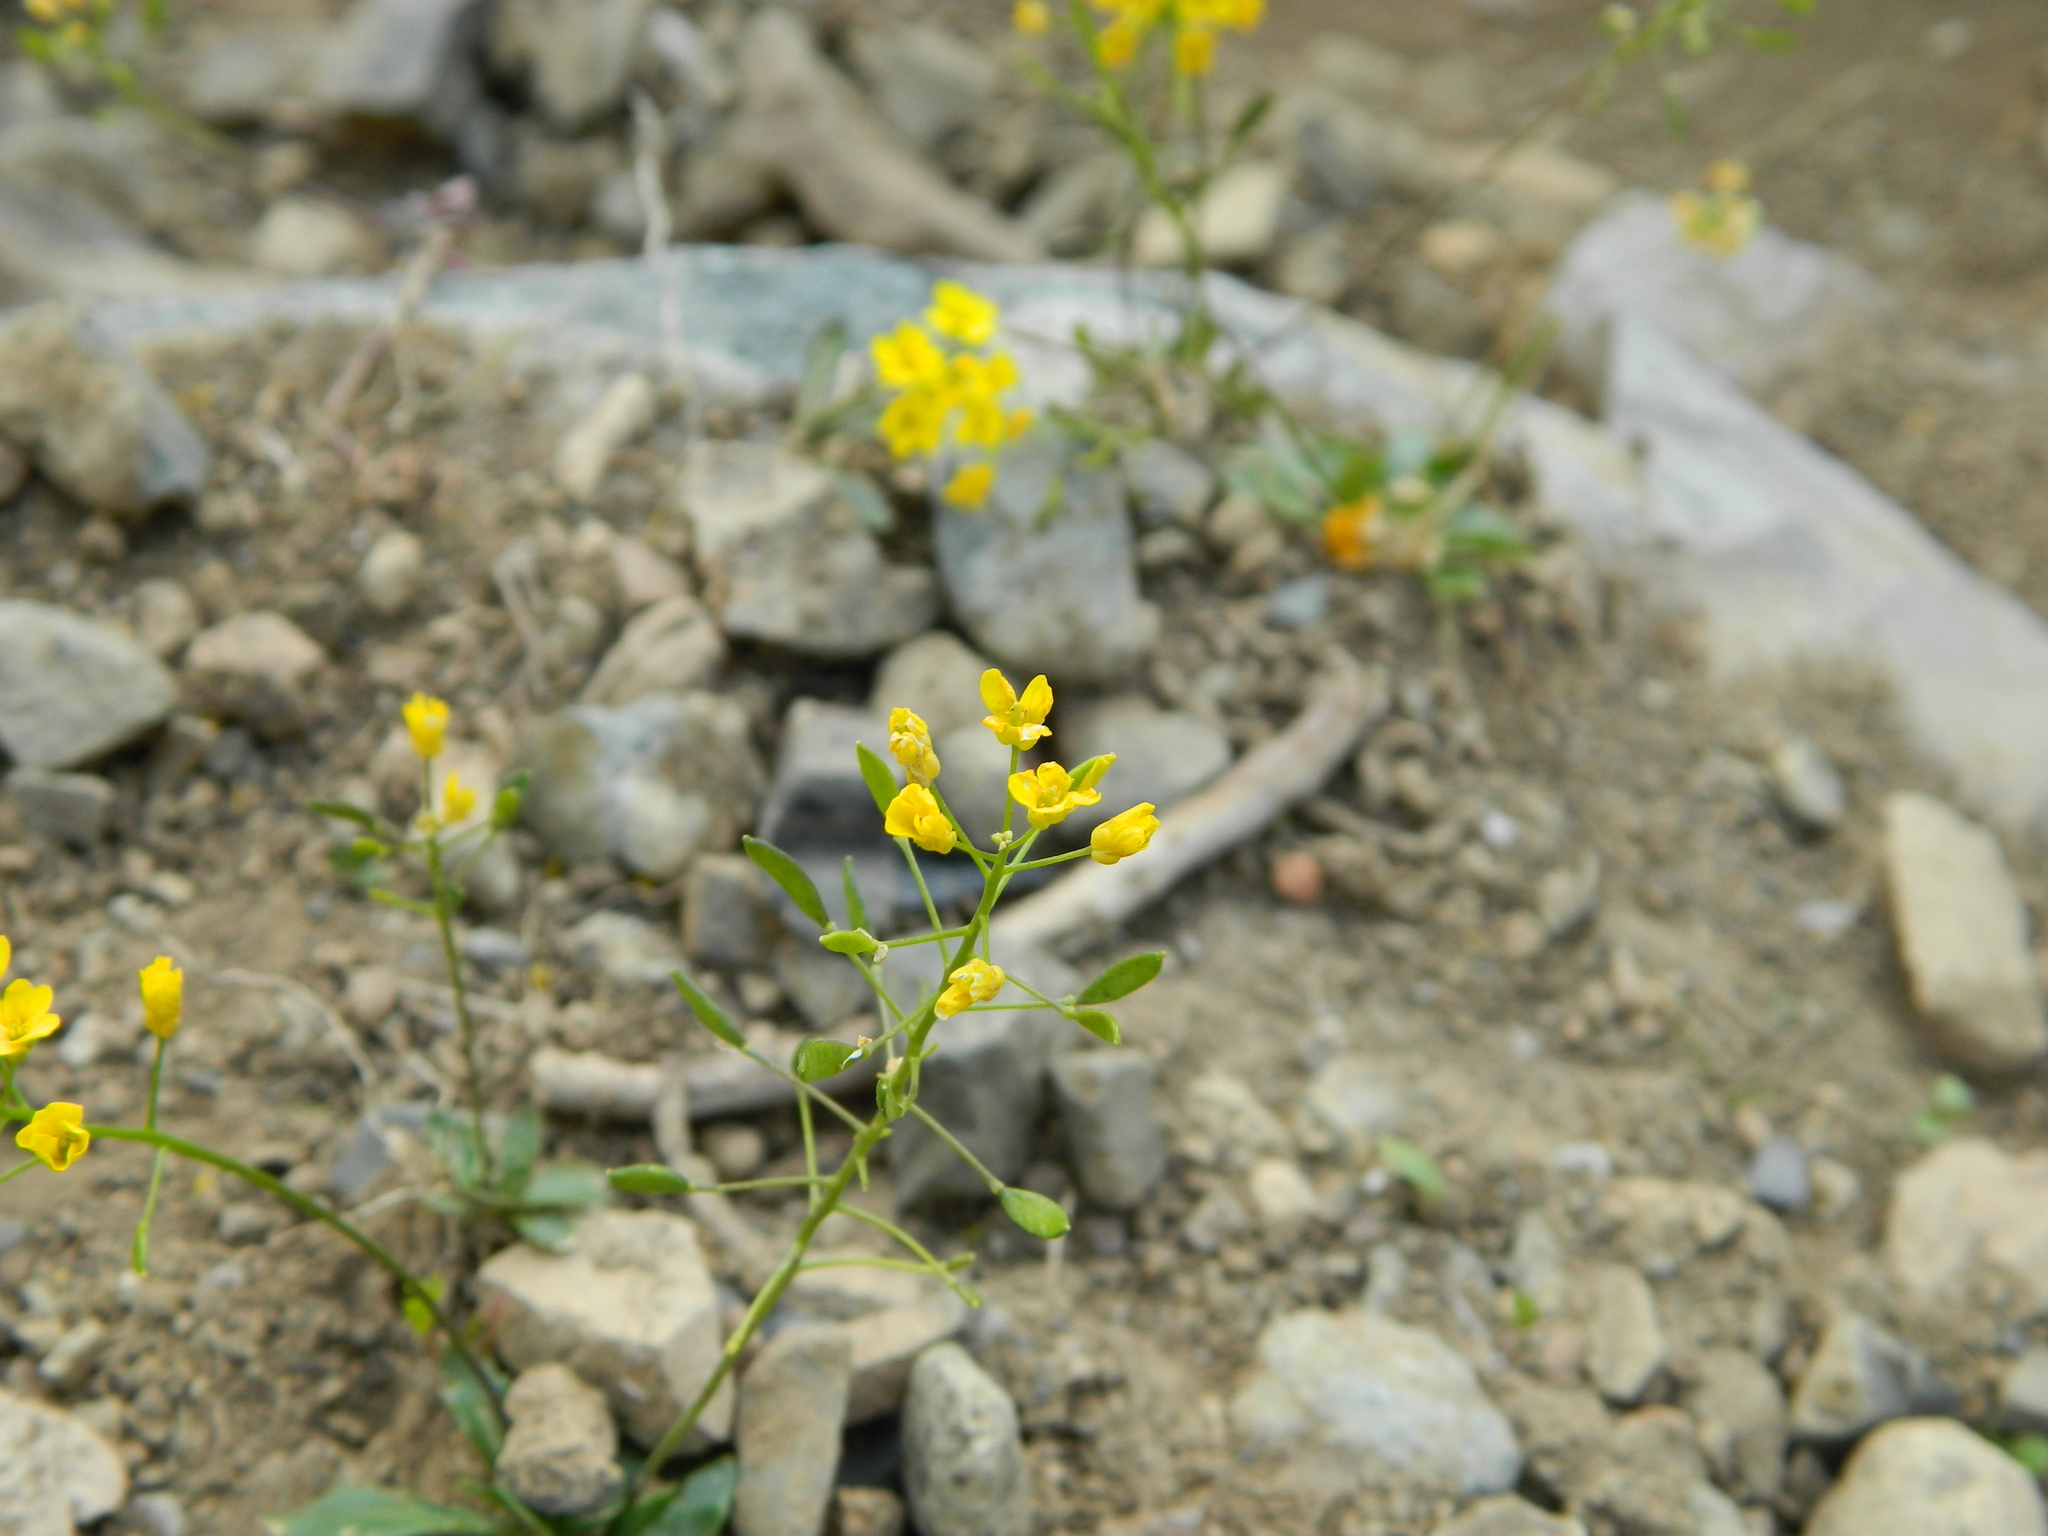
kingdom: Plantae
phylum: Tracheophyta
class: Magnoliopsida
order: Brassicales
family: Brassicaceae
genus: Draba
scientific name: Draba hispida
